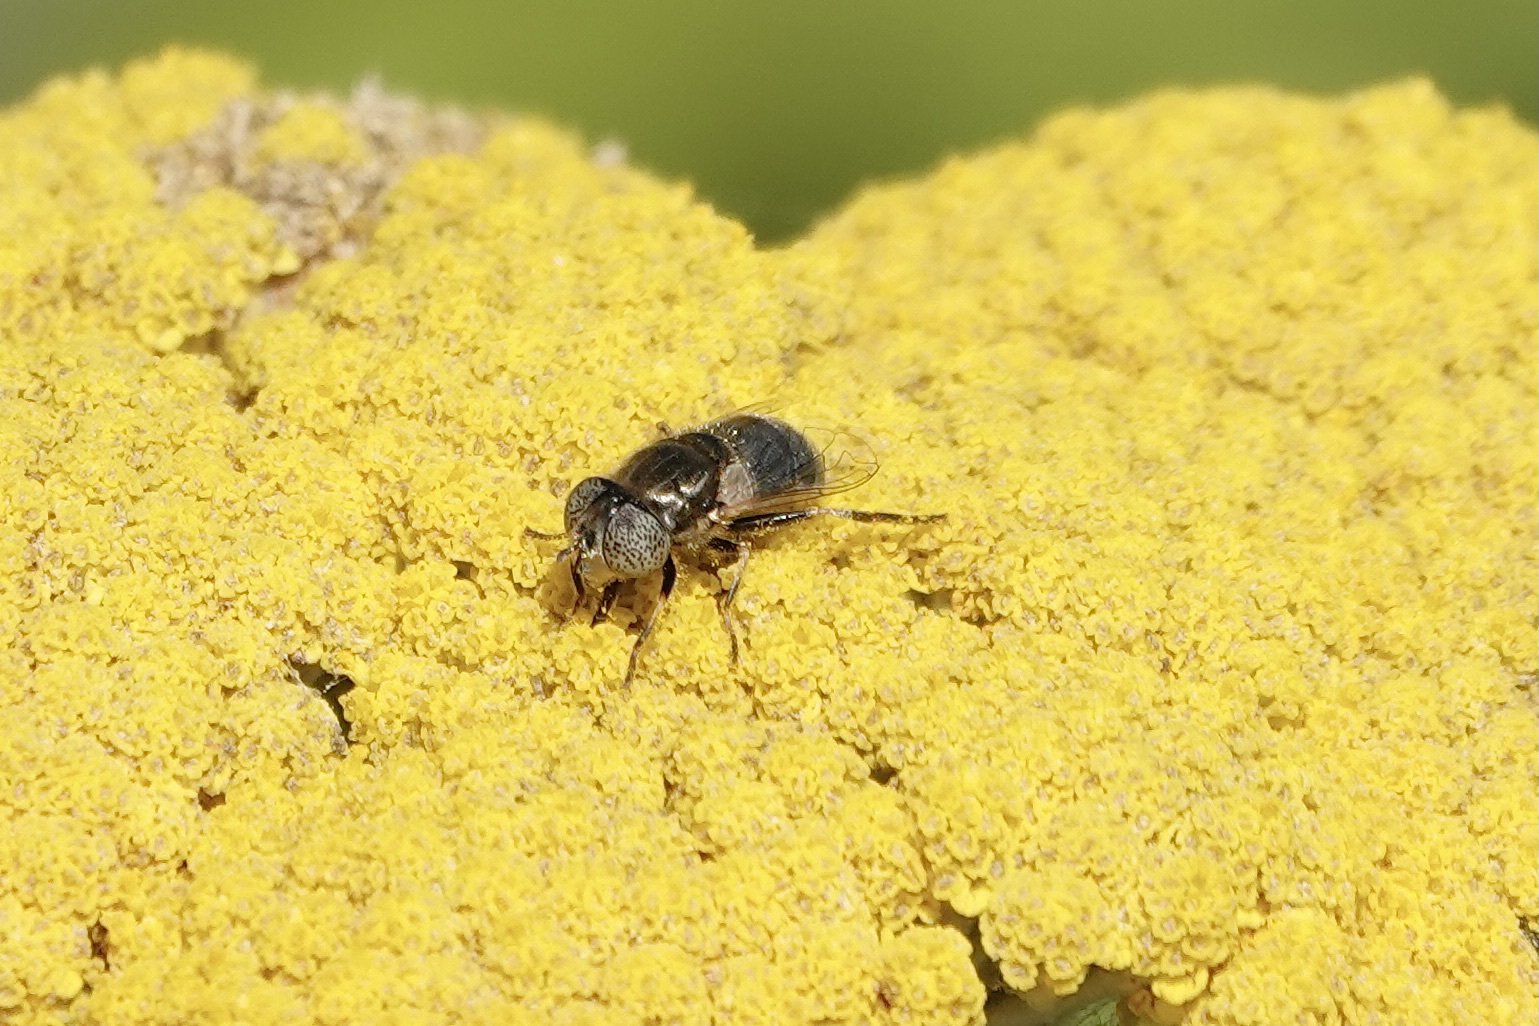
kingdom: Animalia
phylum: Arthropoda
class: Insecta
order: Diptera
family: Syrphidae
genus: Eristalinus
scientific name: Eristalinus aeneus
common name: Syrphid fly
